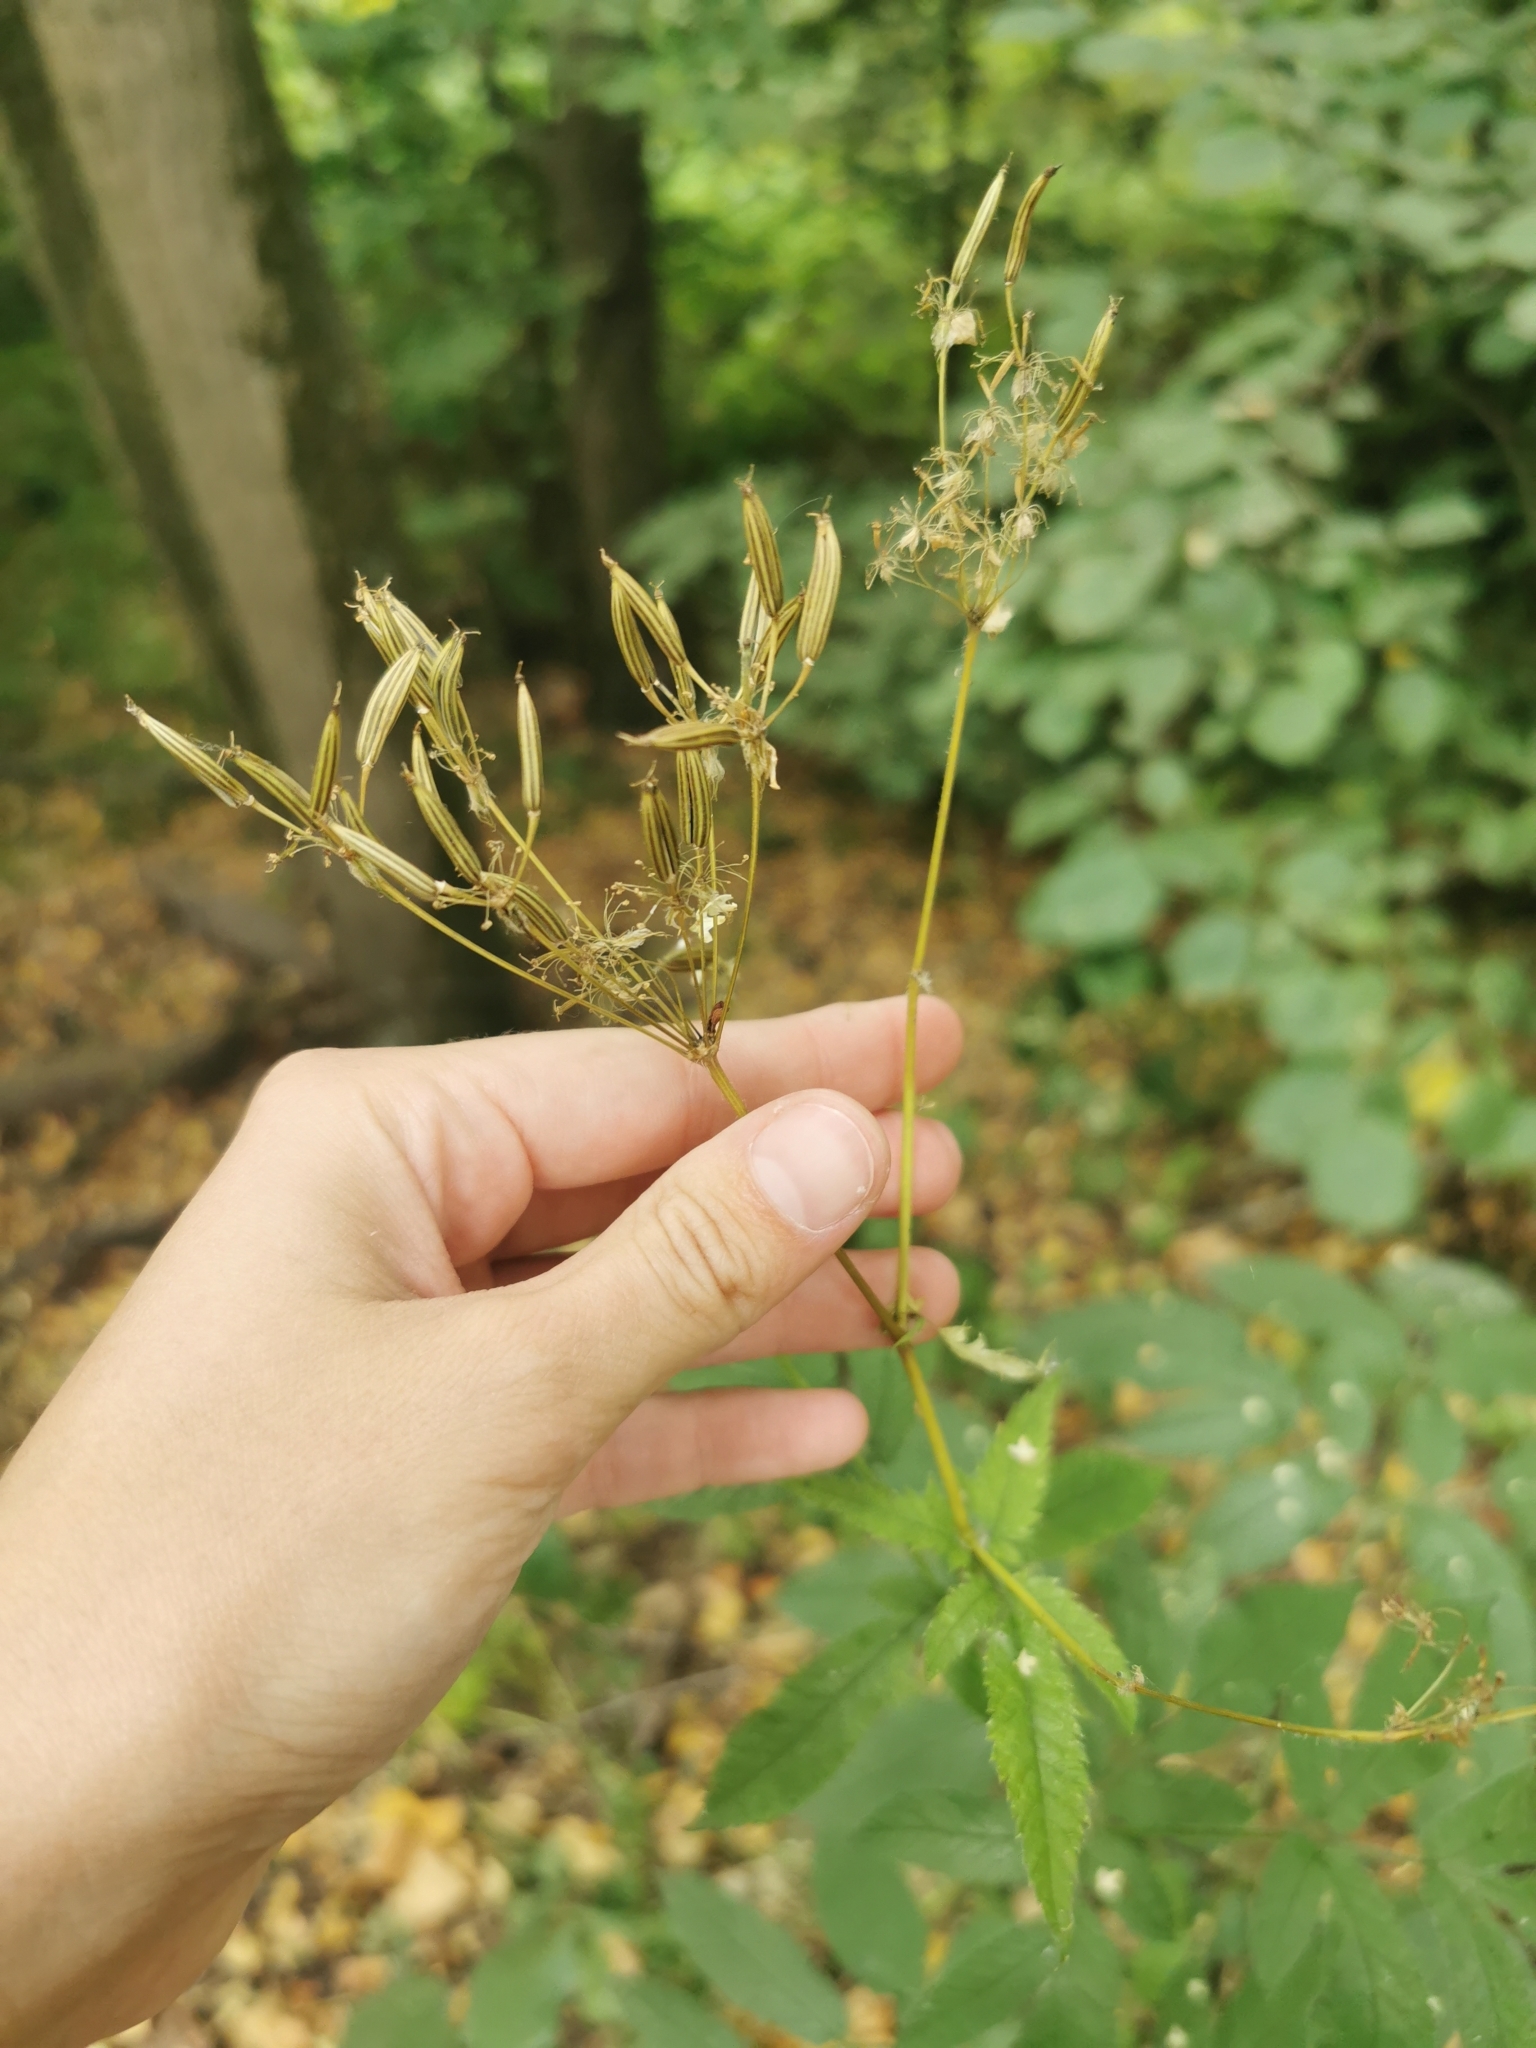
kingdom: Plantae
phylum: Tracheophyta
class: Magnoliopsida
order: Apiales
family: Apiaceae
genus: Chaerophyllum
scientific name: Chaerophyllum aromaticum
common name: Broadleaf chervil
